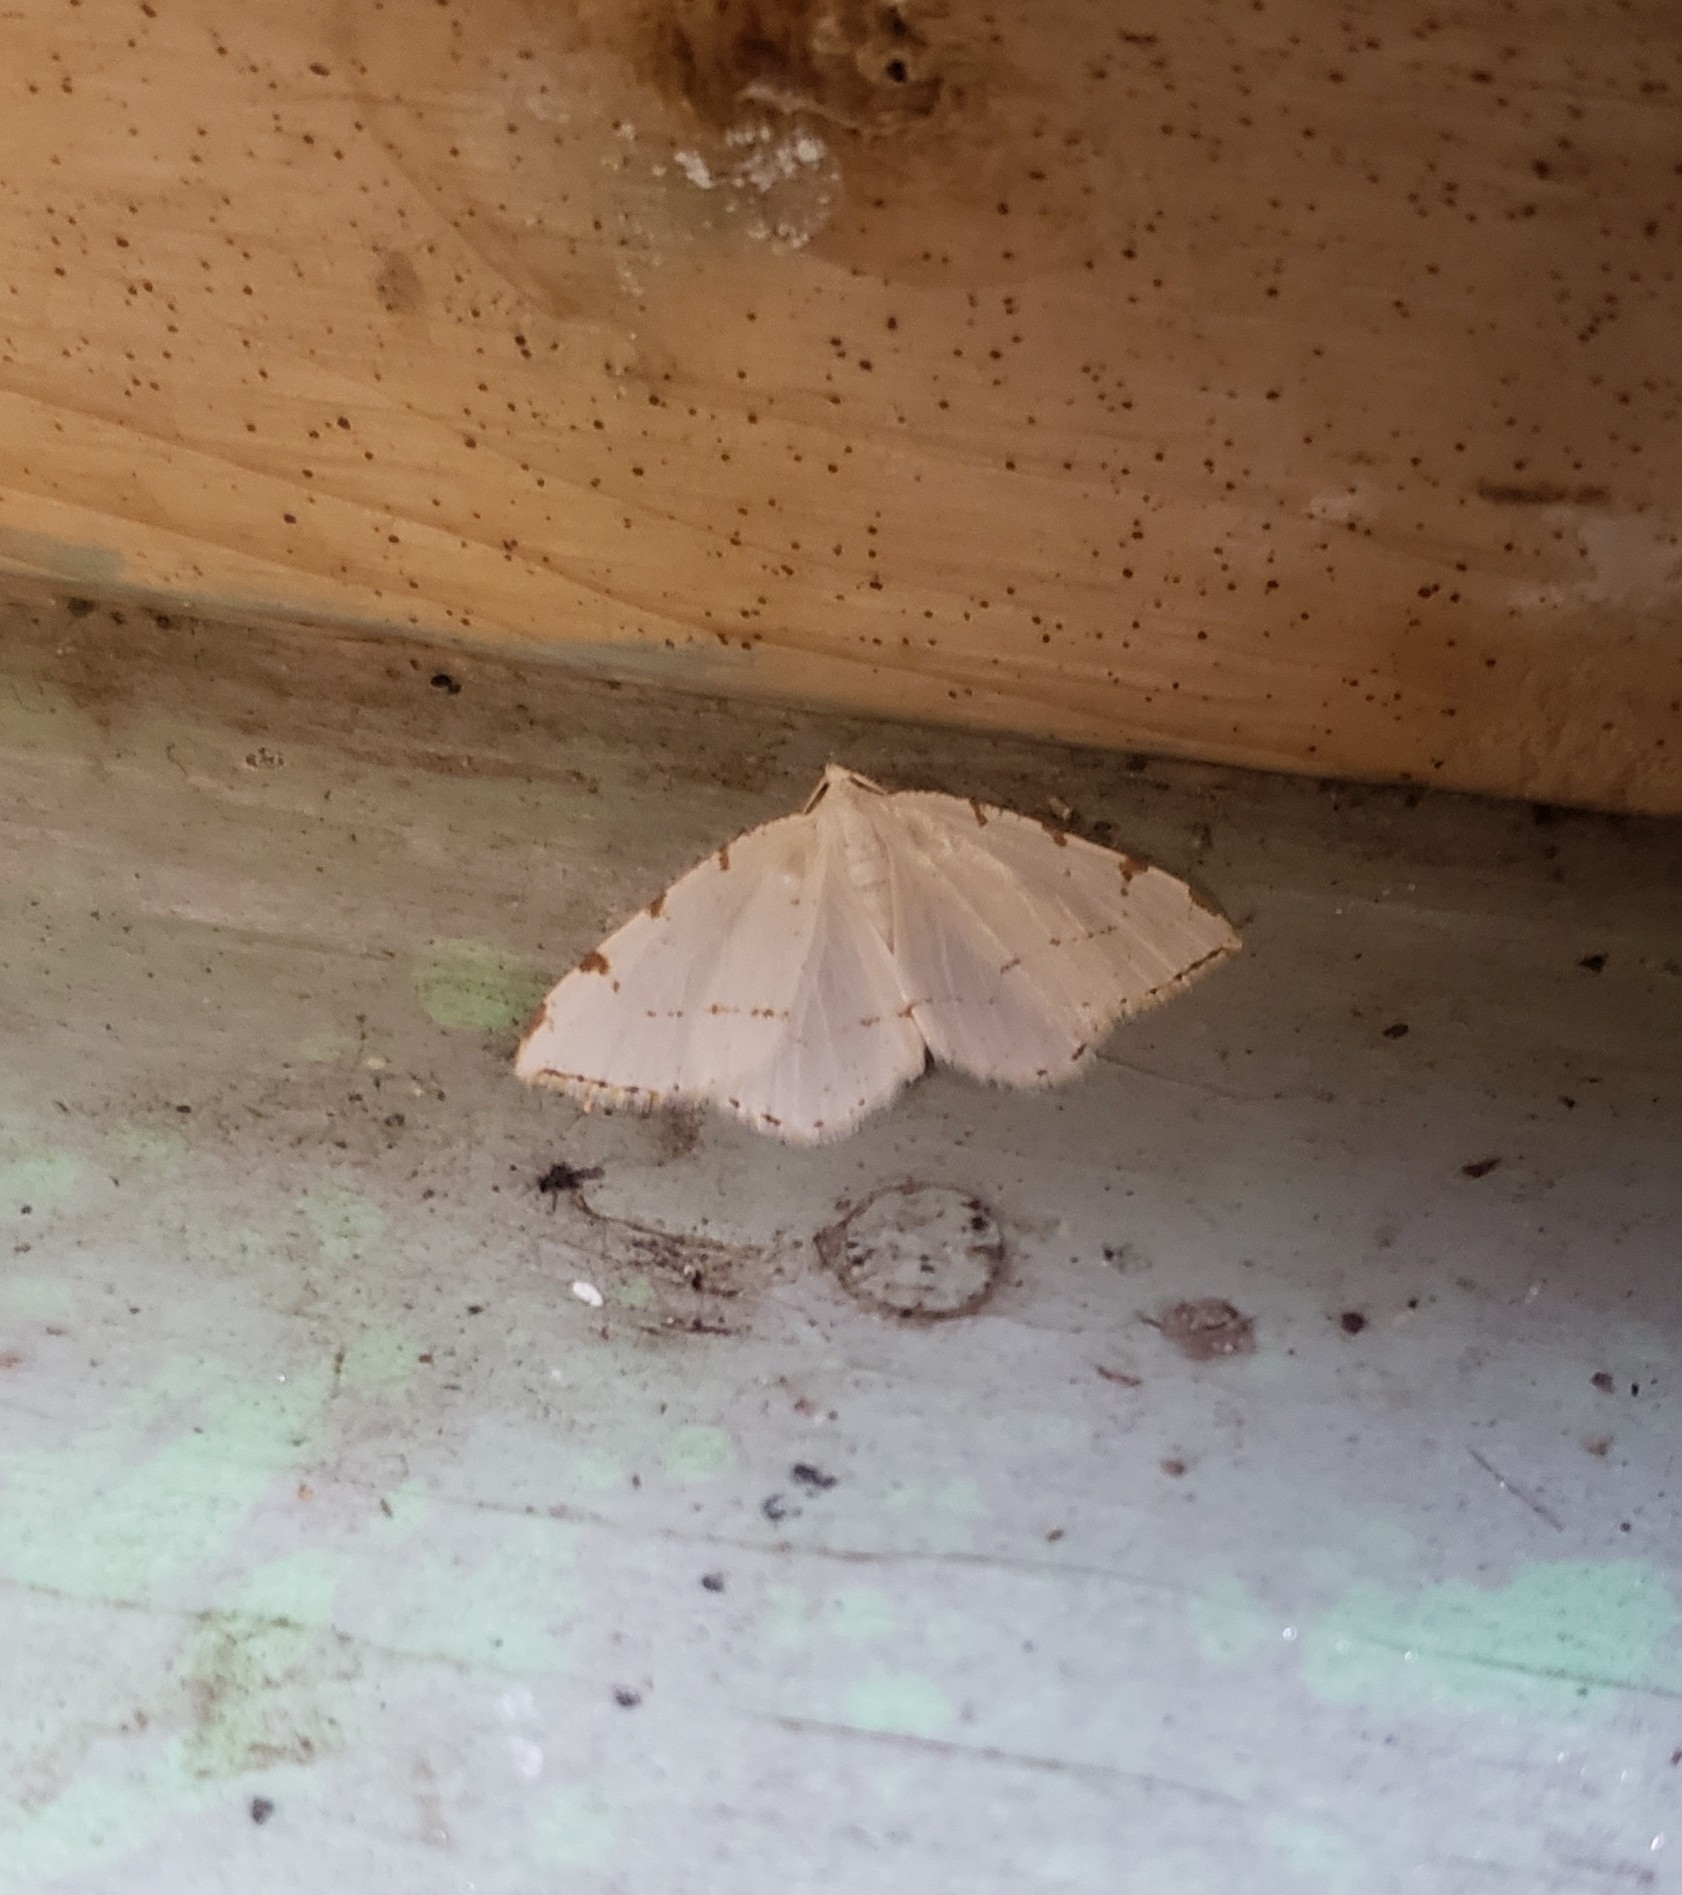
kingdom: Animalia
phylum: Arthropoda
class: Insecta
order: Lepidoptera
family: Geometridae
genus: Macaria
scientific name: Macaria pustularia
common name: Lesser maple spanworm moth
